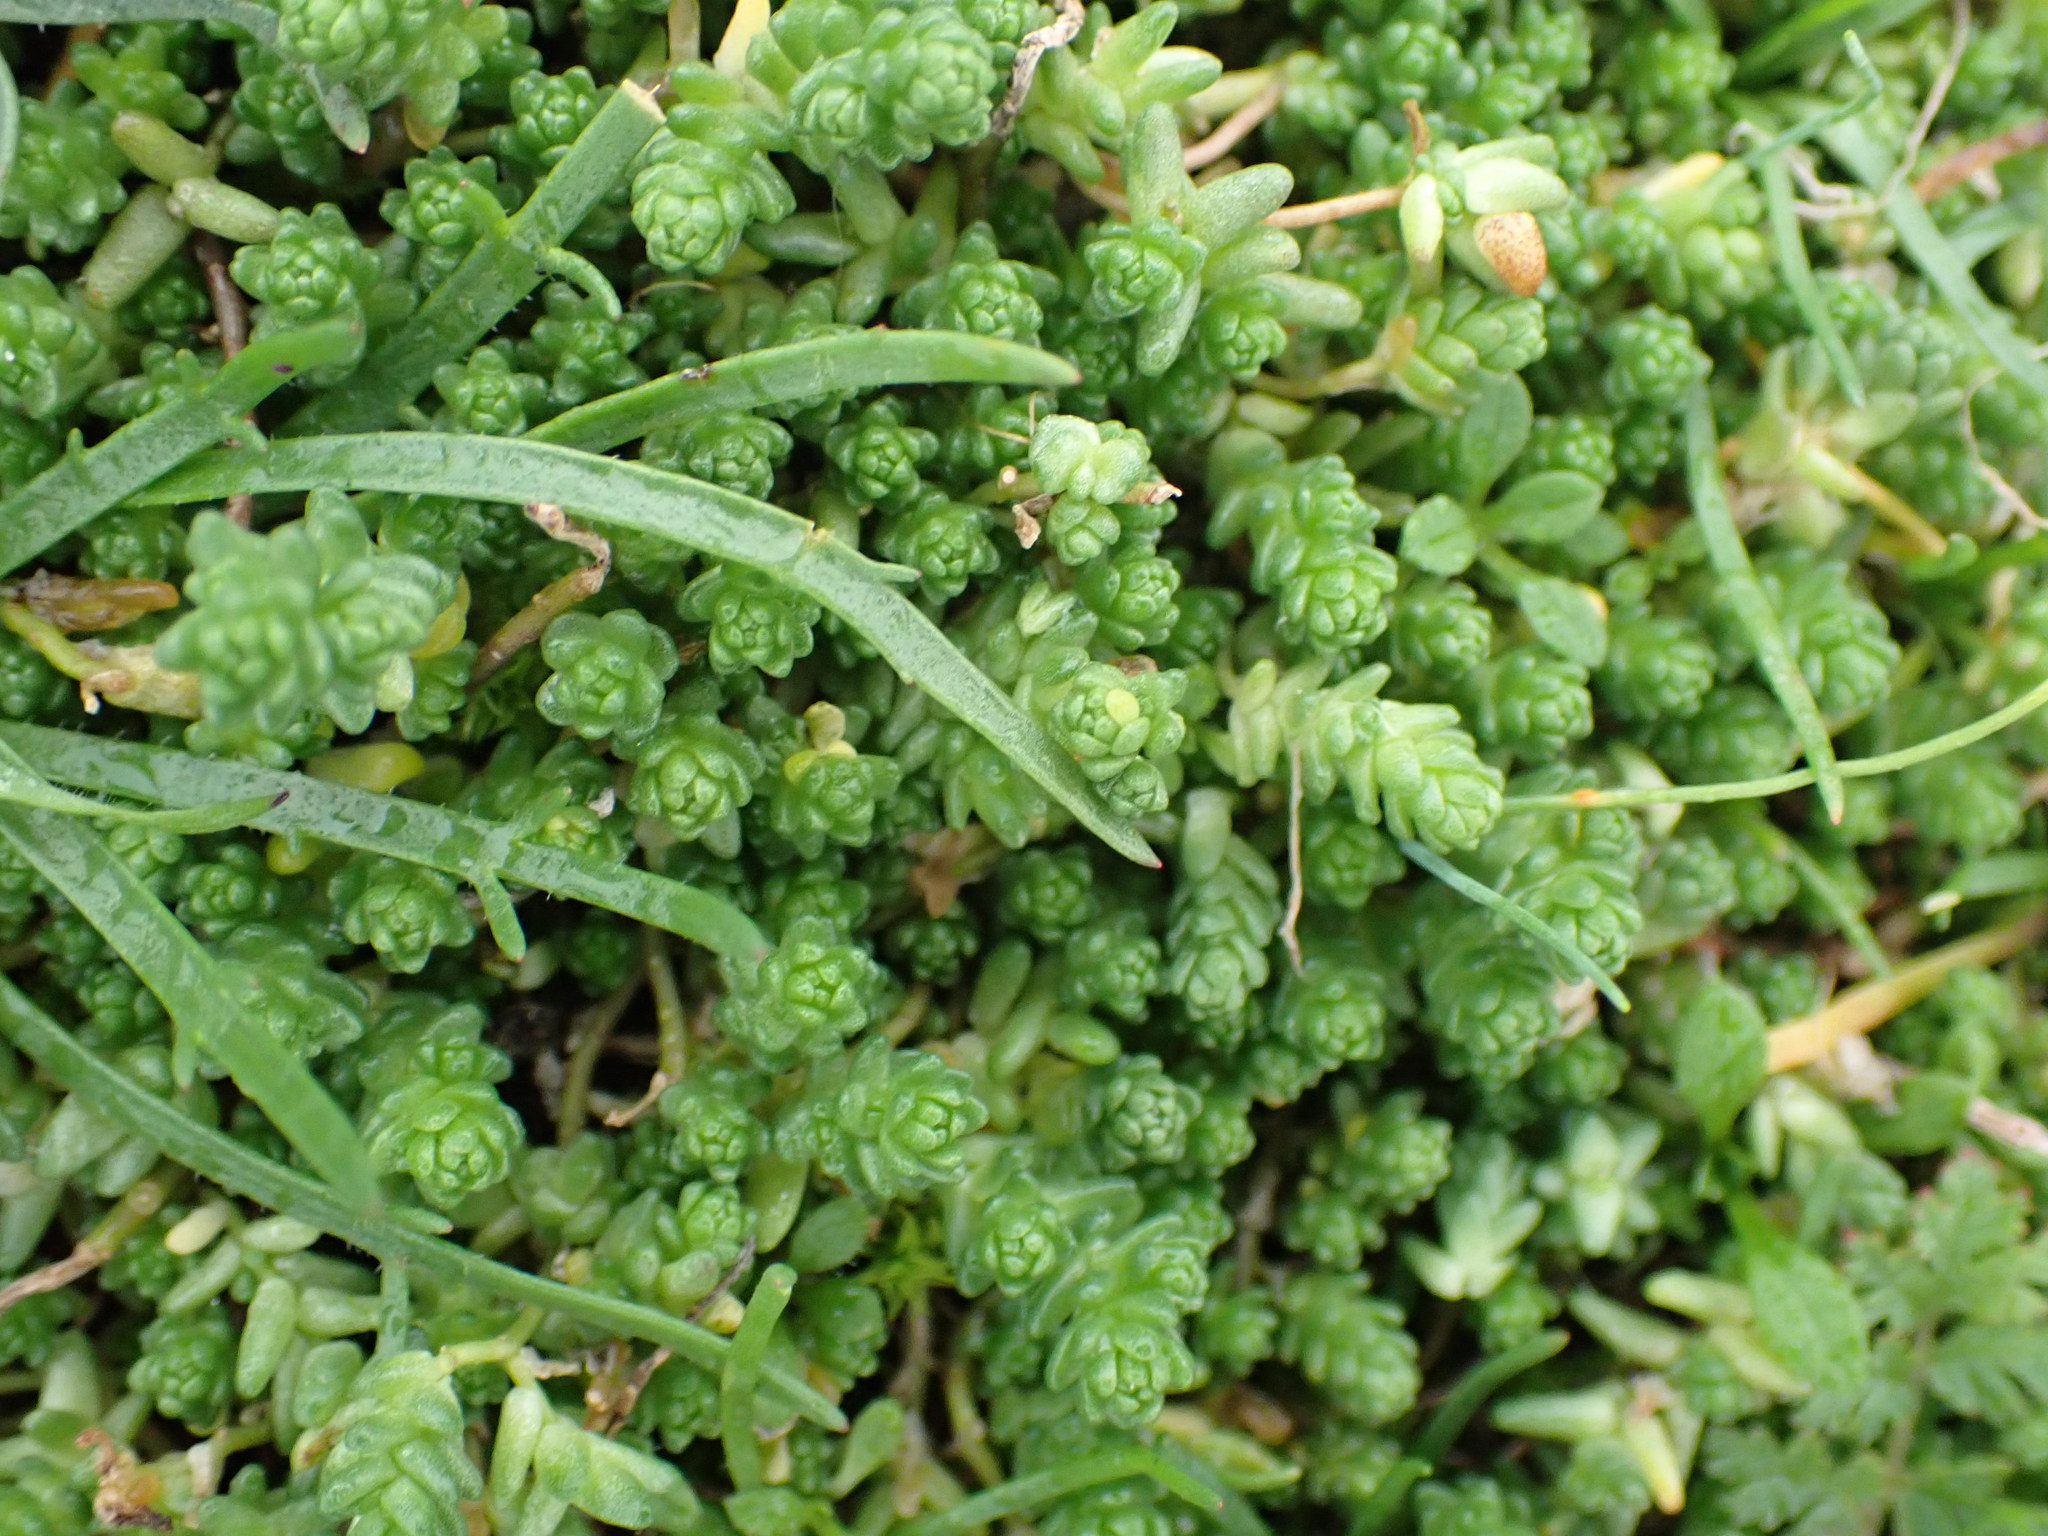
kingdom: Plantae
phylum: Tracheophyta
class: Magnoliopsida
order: Saxifragales
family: Crassulaceae
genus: Sedum
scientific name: Sedum acre
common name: Biting stonecrop
